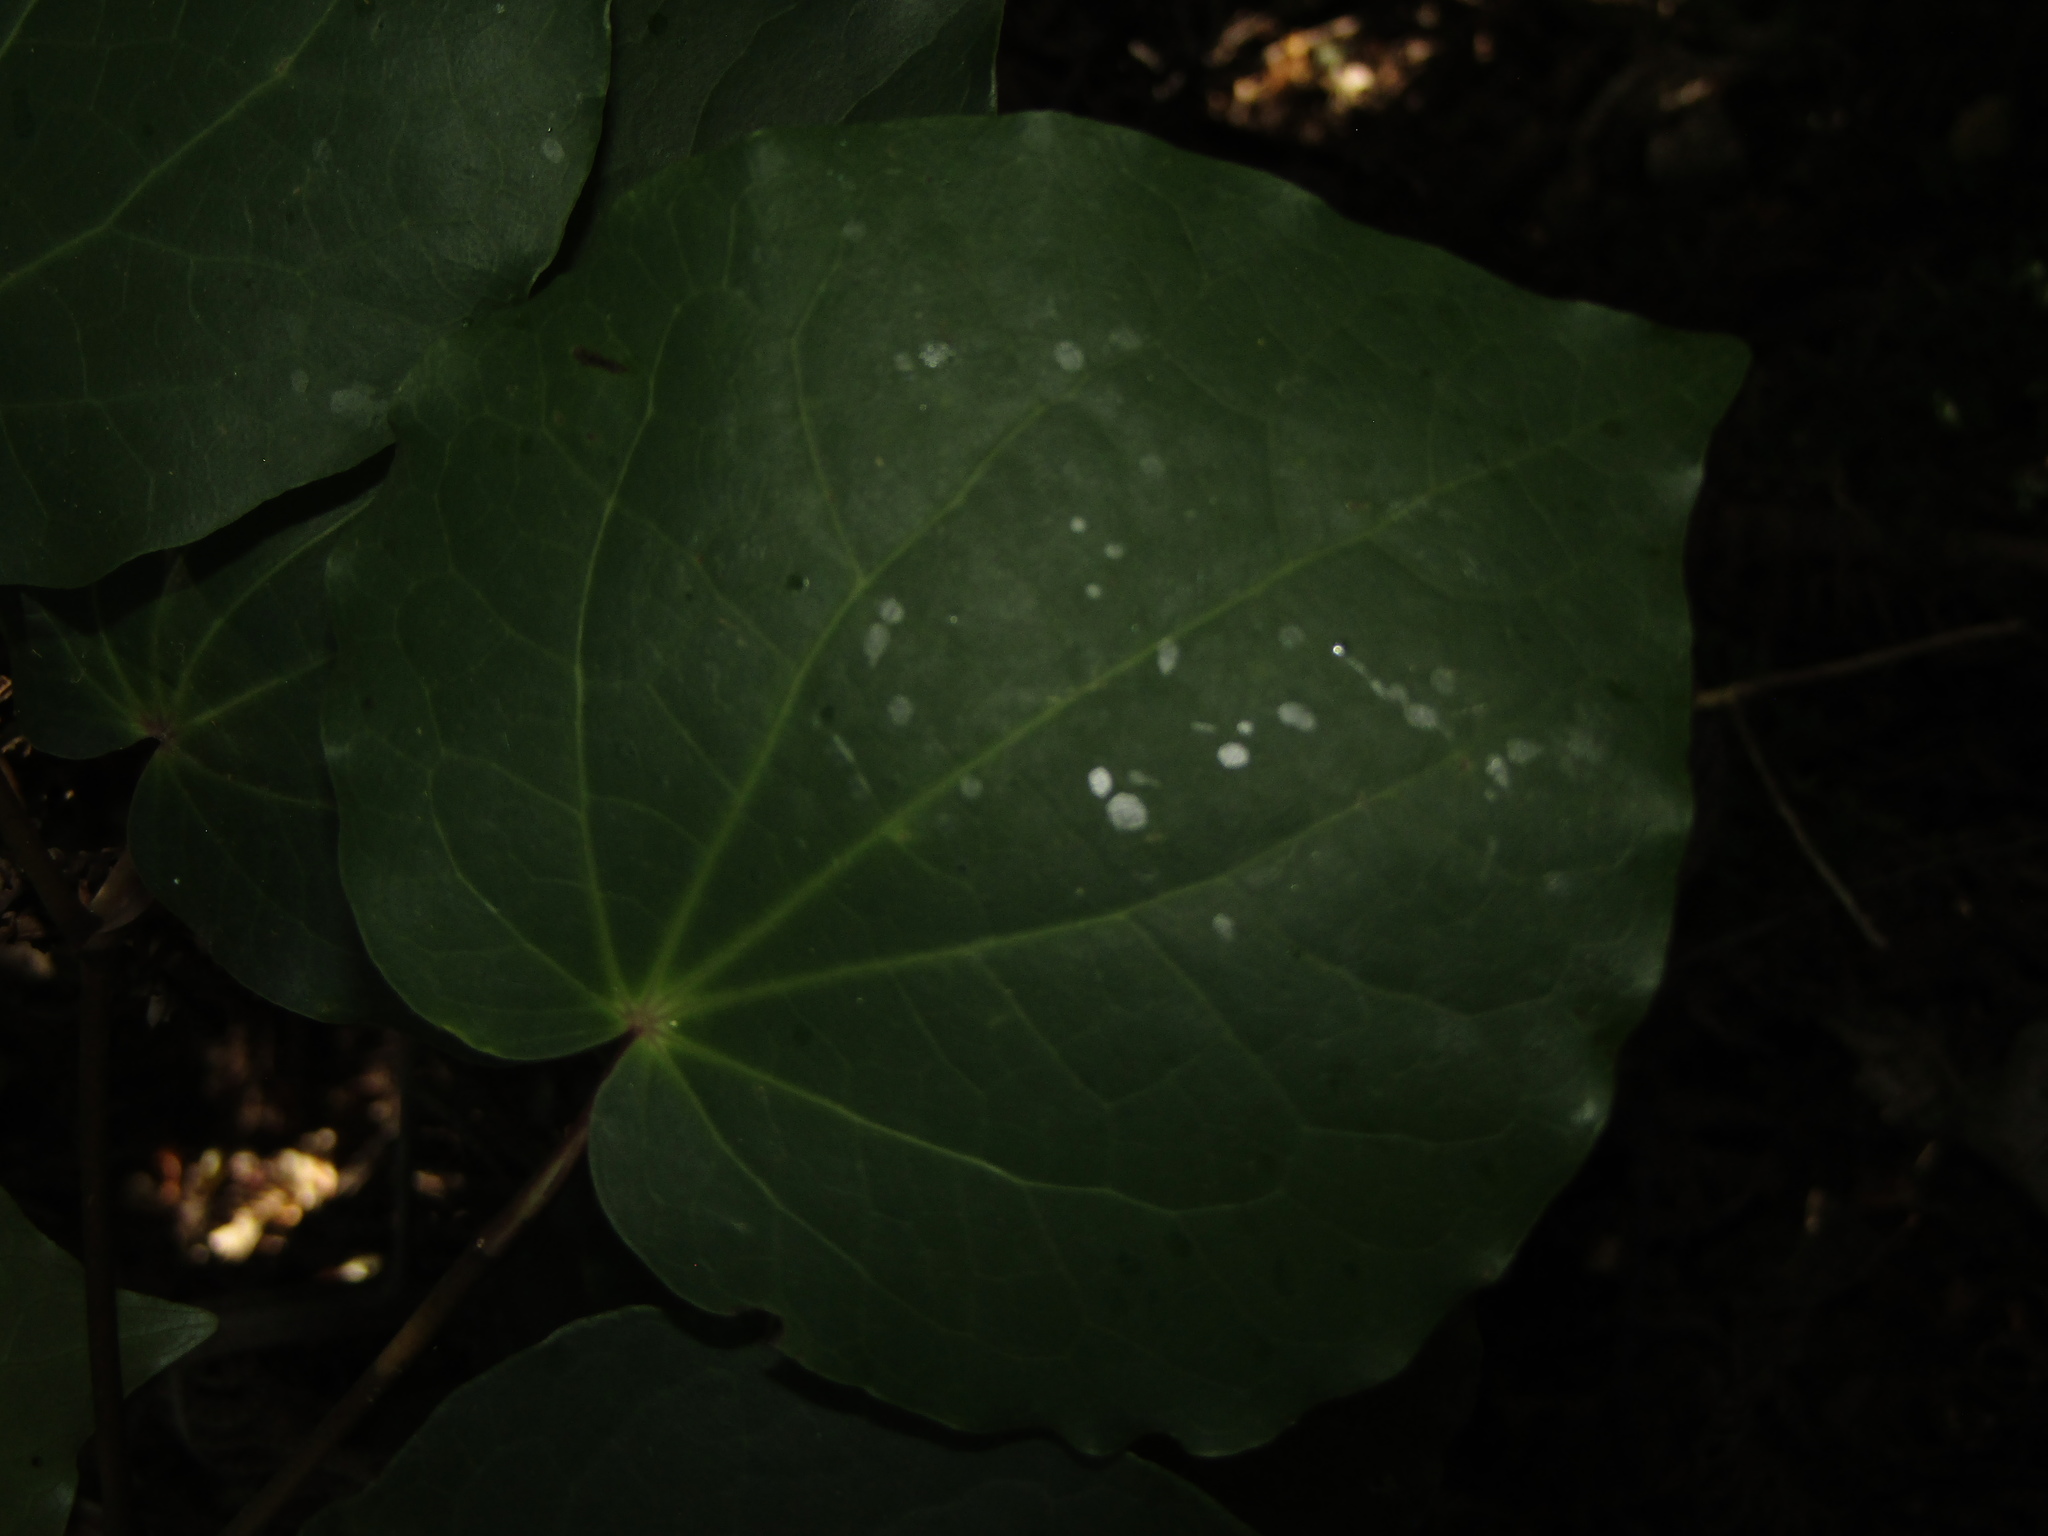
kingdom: Plantae
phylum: Tracheophyta
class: Magnoliopsida
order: Piperales
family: Piperaceae
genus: Macropiper
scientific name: Macropiper excelsum
